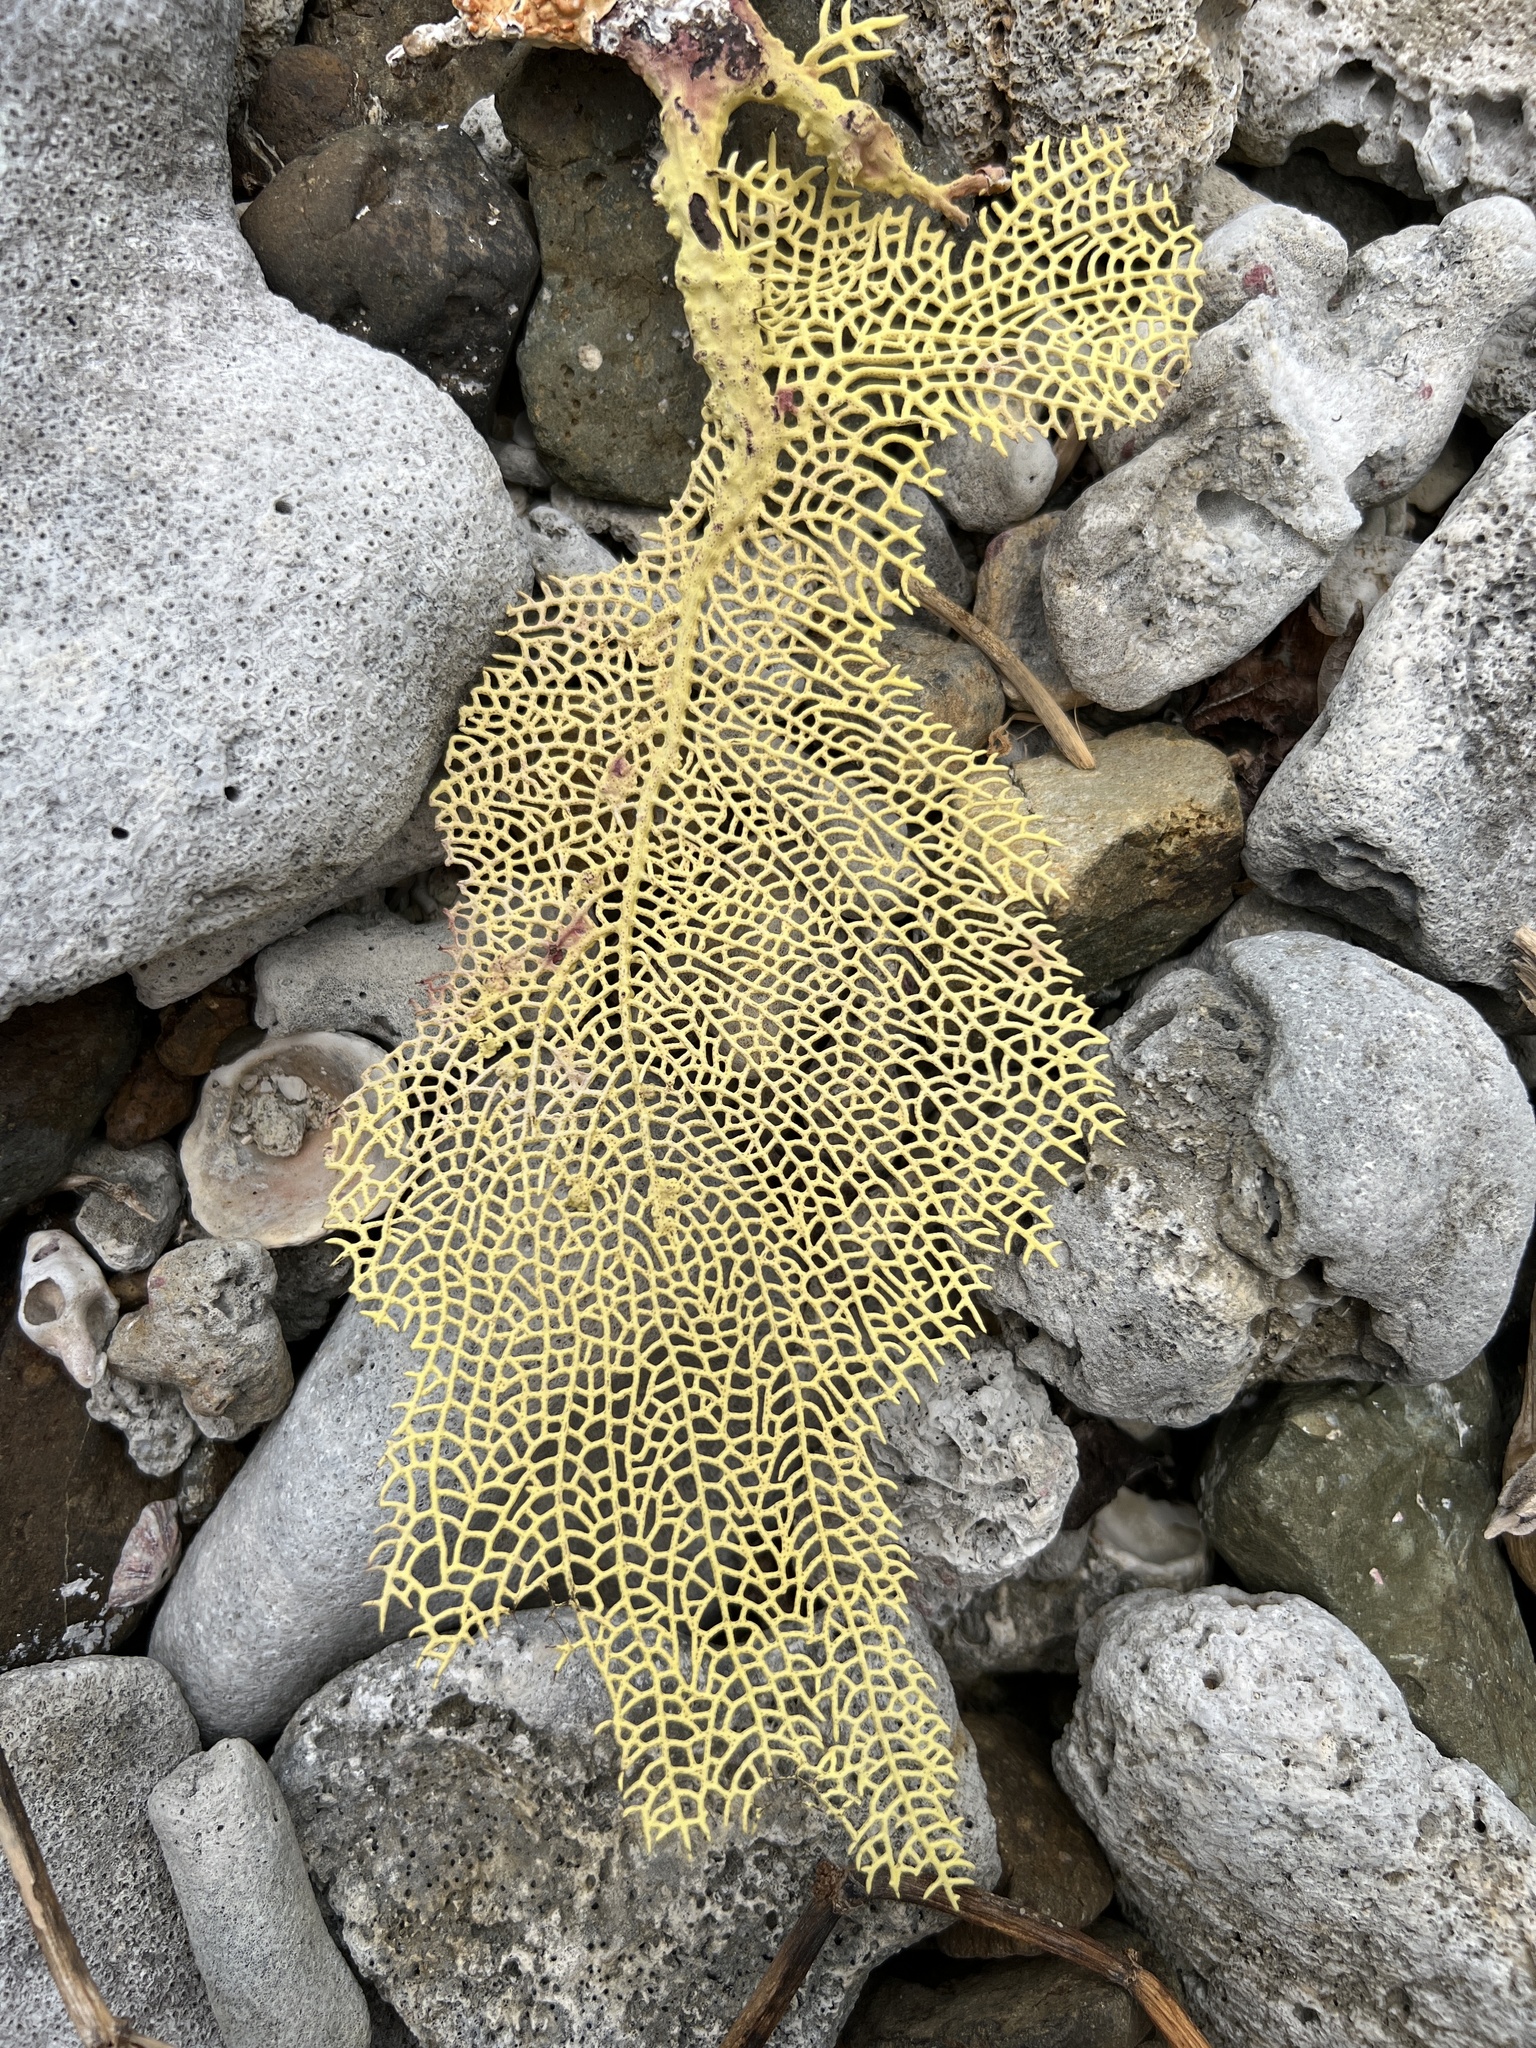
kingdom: Animalia
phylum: Cnidaria
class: Anthozoa
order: Malacalcyonacea
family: Gorgoniidae
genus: Gorgonia
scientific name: Gorgonia ventalina
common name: Common sea fan
